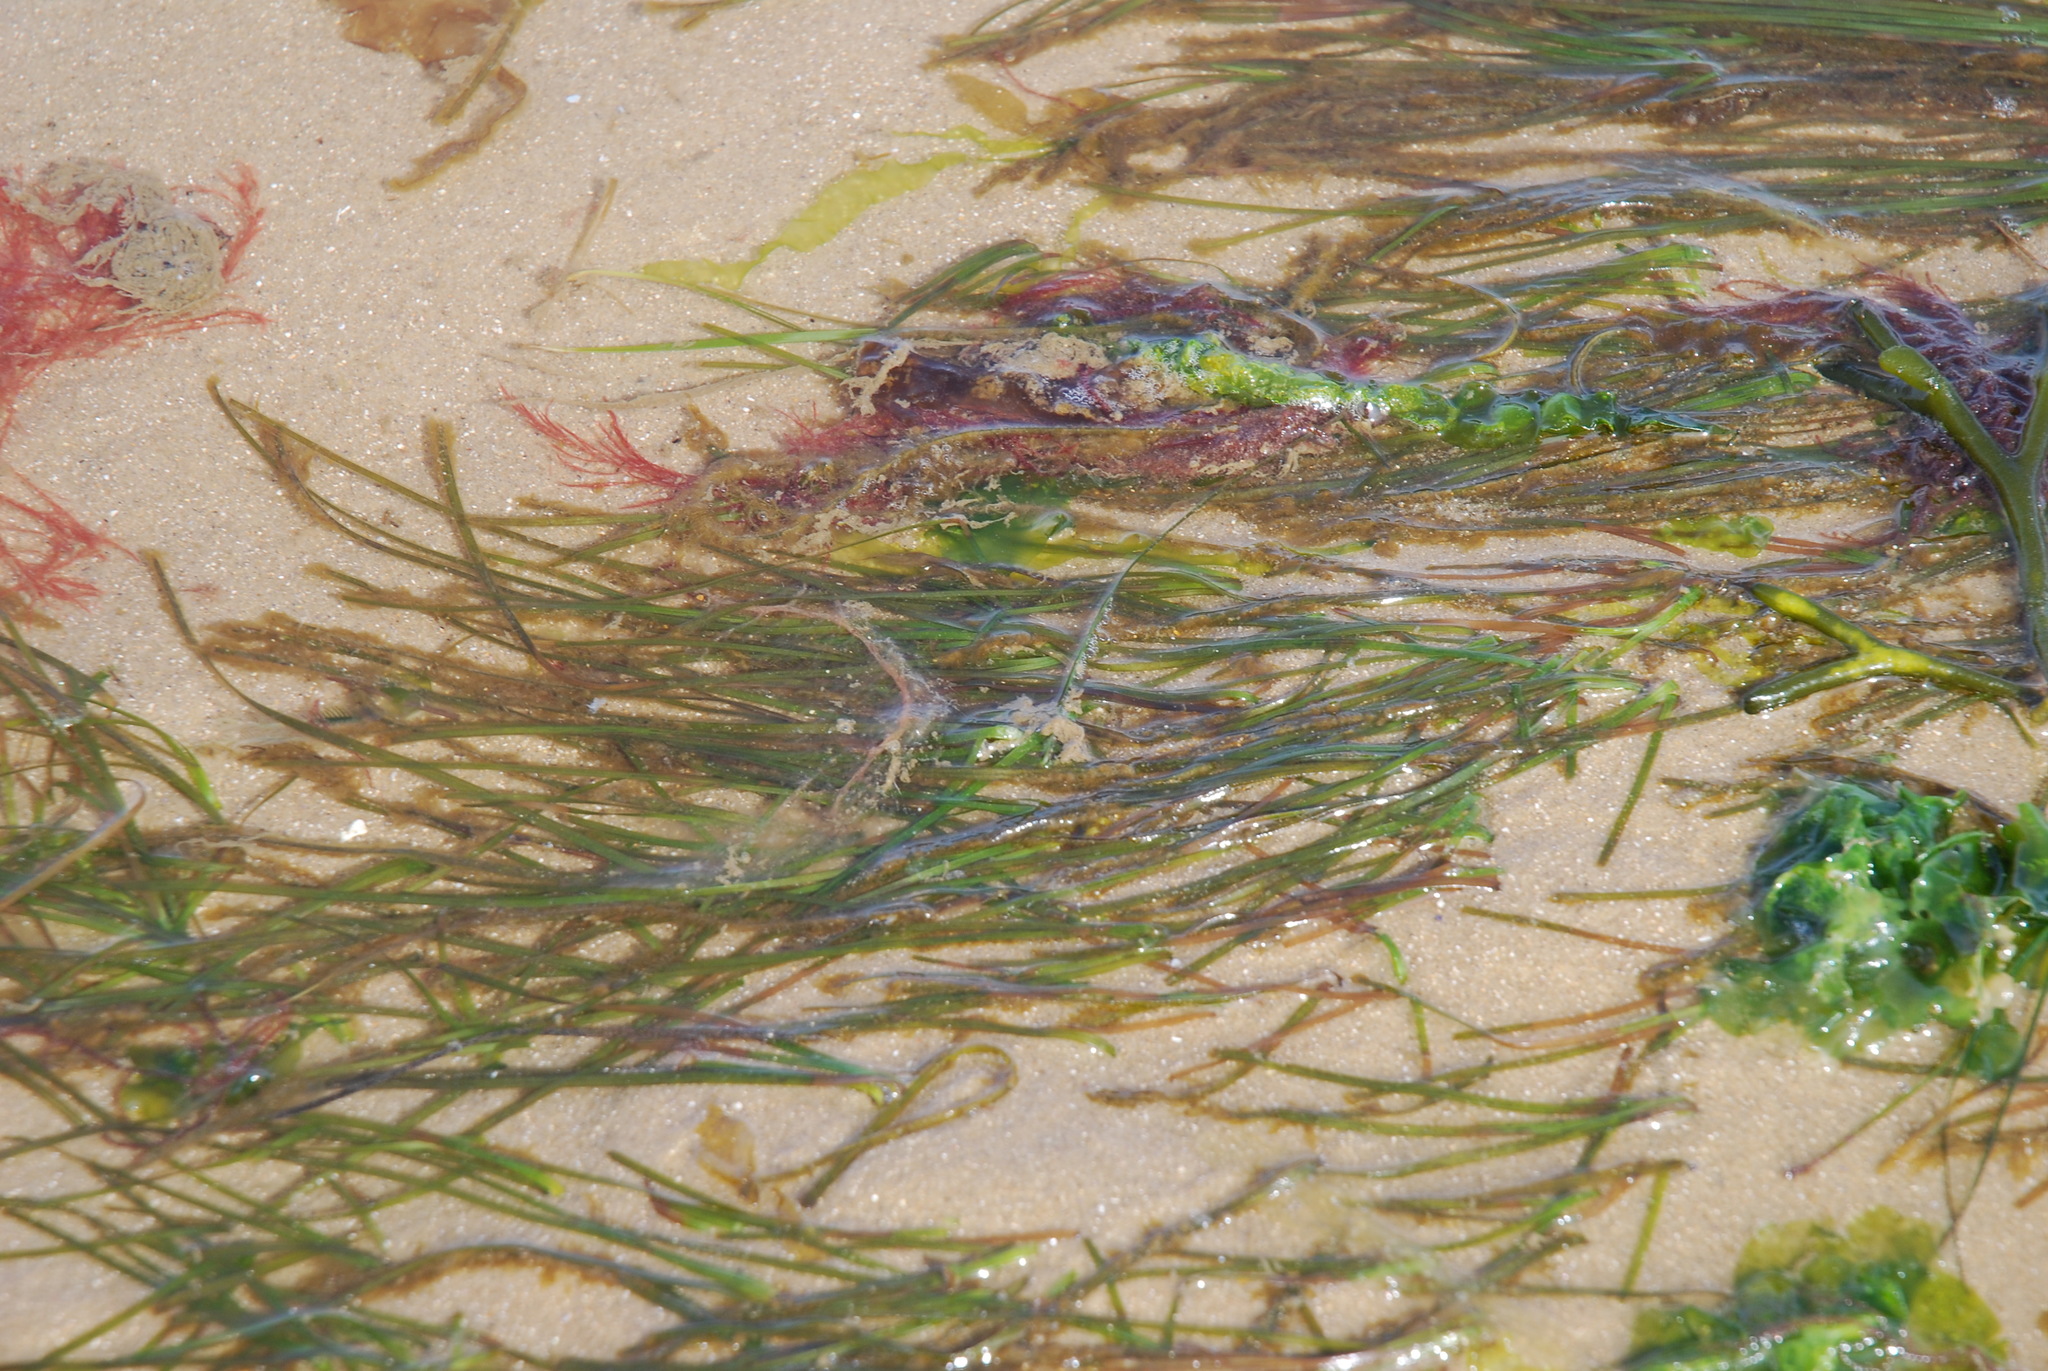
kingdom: Plantae
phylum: Tracheophyta
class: Liliopsida
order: Alismatales
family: Zosteraceae
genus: Zostera
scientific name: Zostera muelleri
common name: Species code: zc
